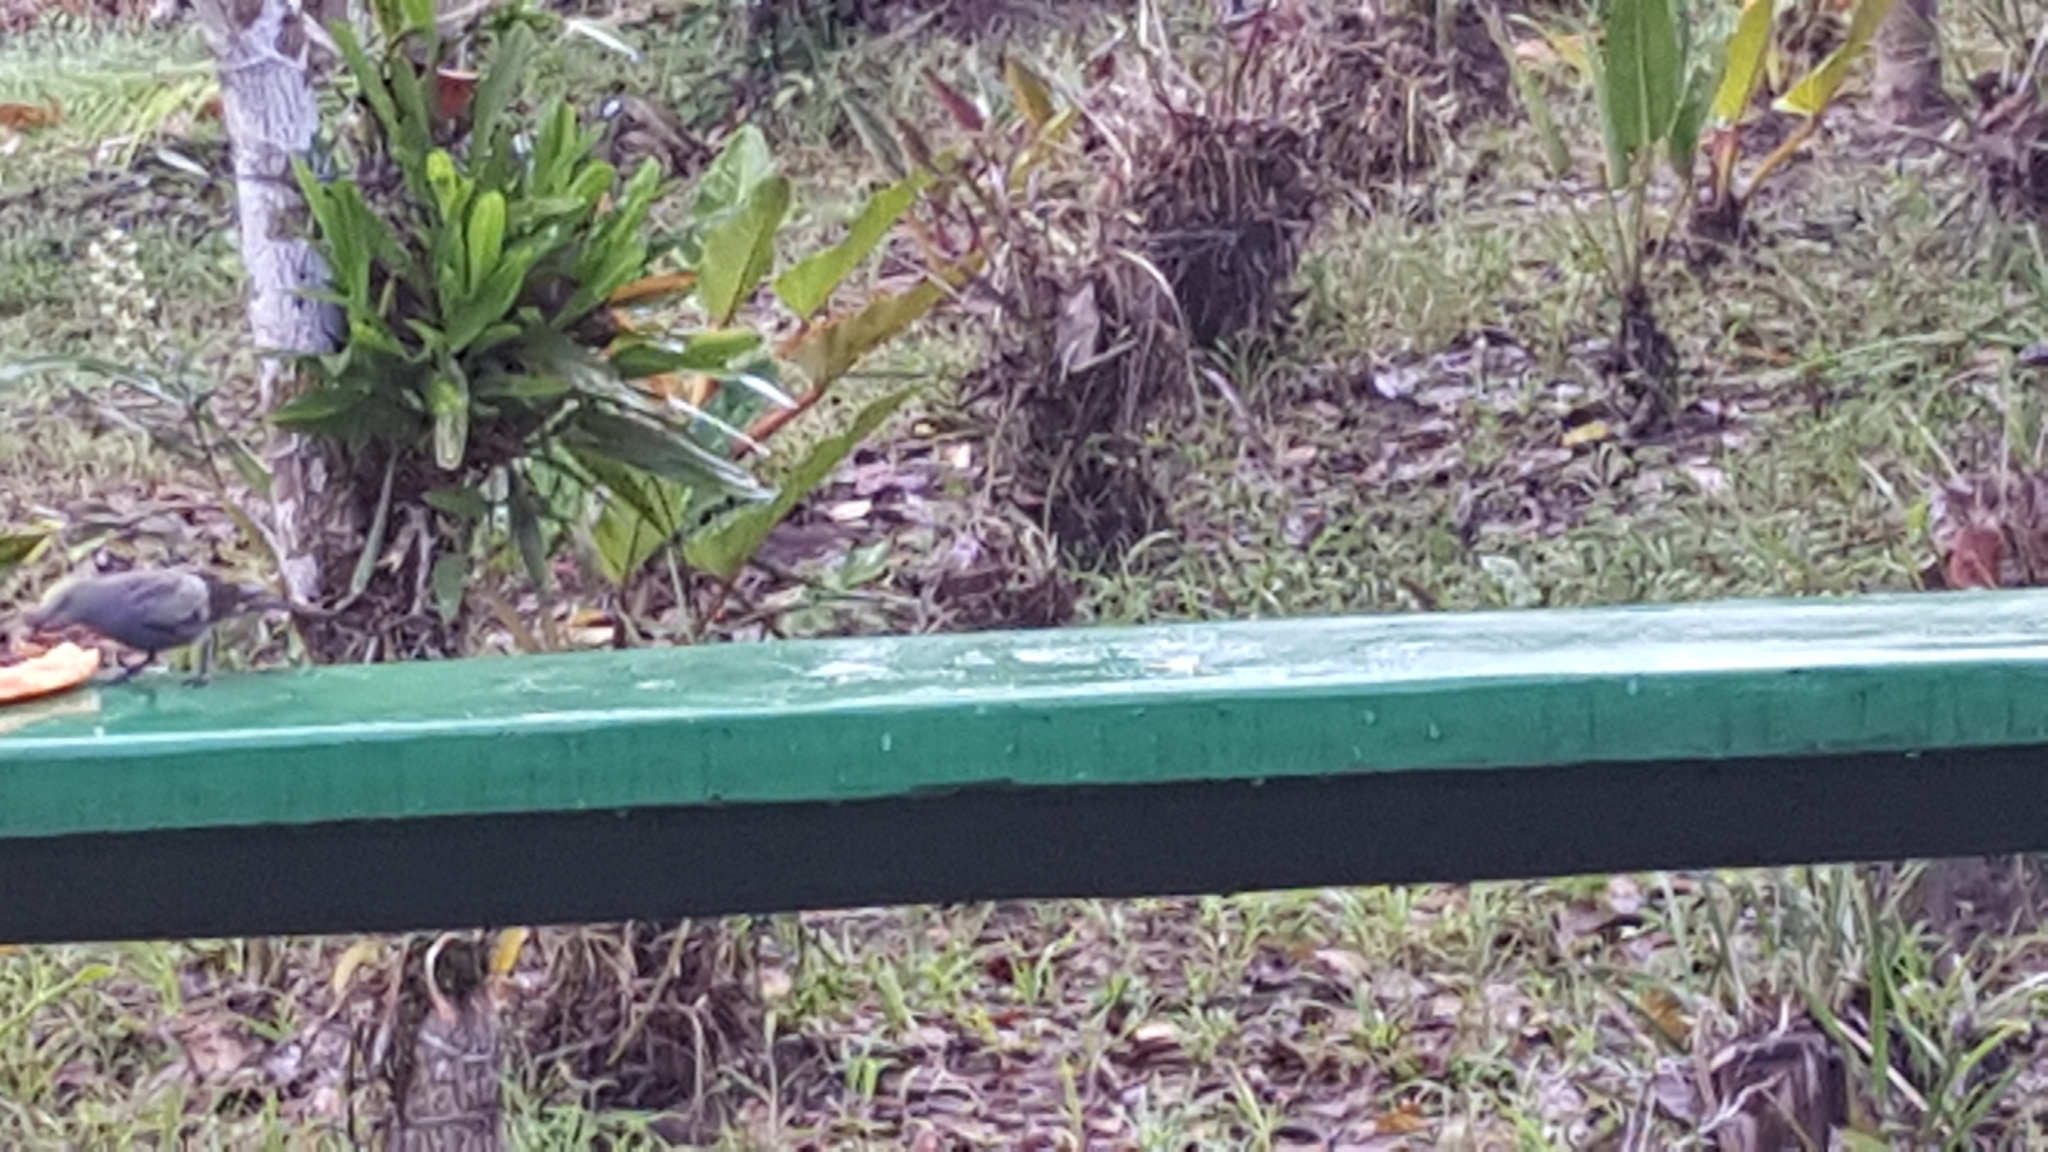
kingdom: Animalia
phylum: Chordata
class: Aves
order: Passeriformes
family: Thraupidae
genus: Thraupis
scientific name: Thraupis palmarum
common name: Palm tanager
